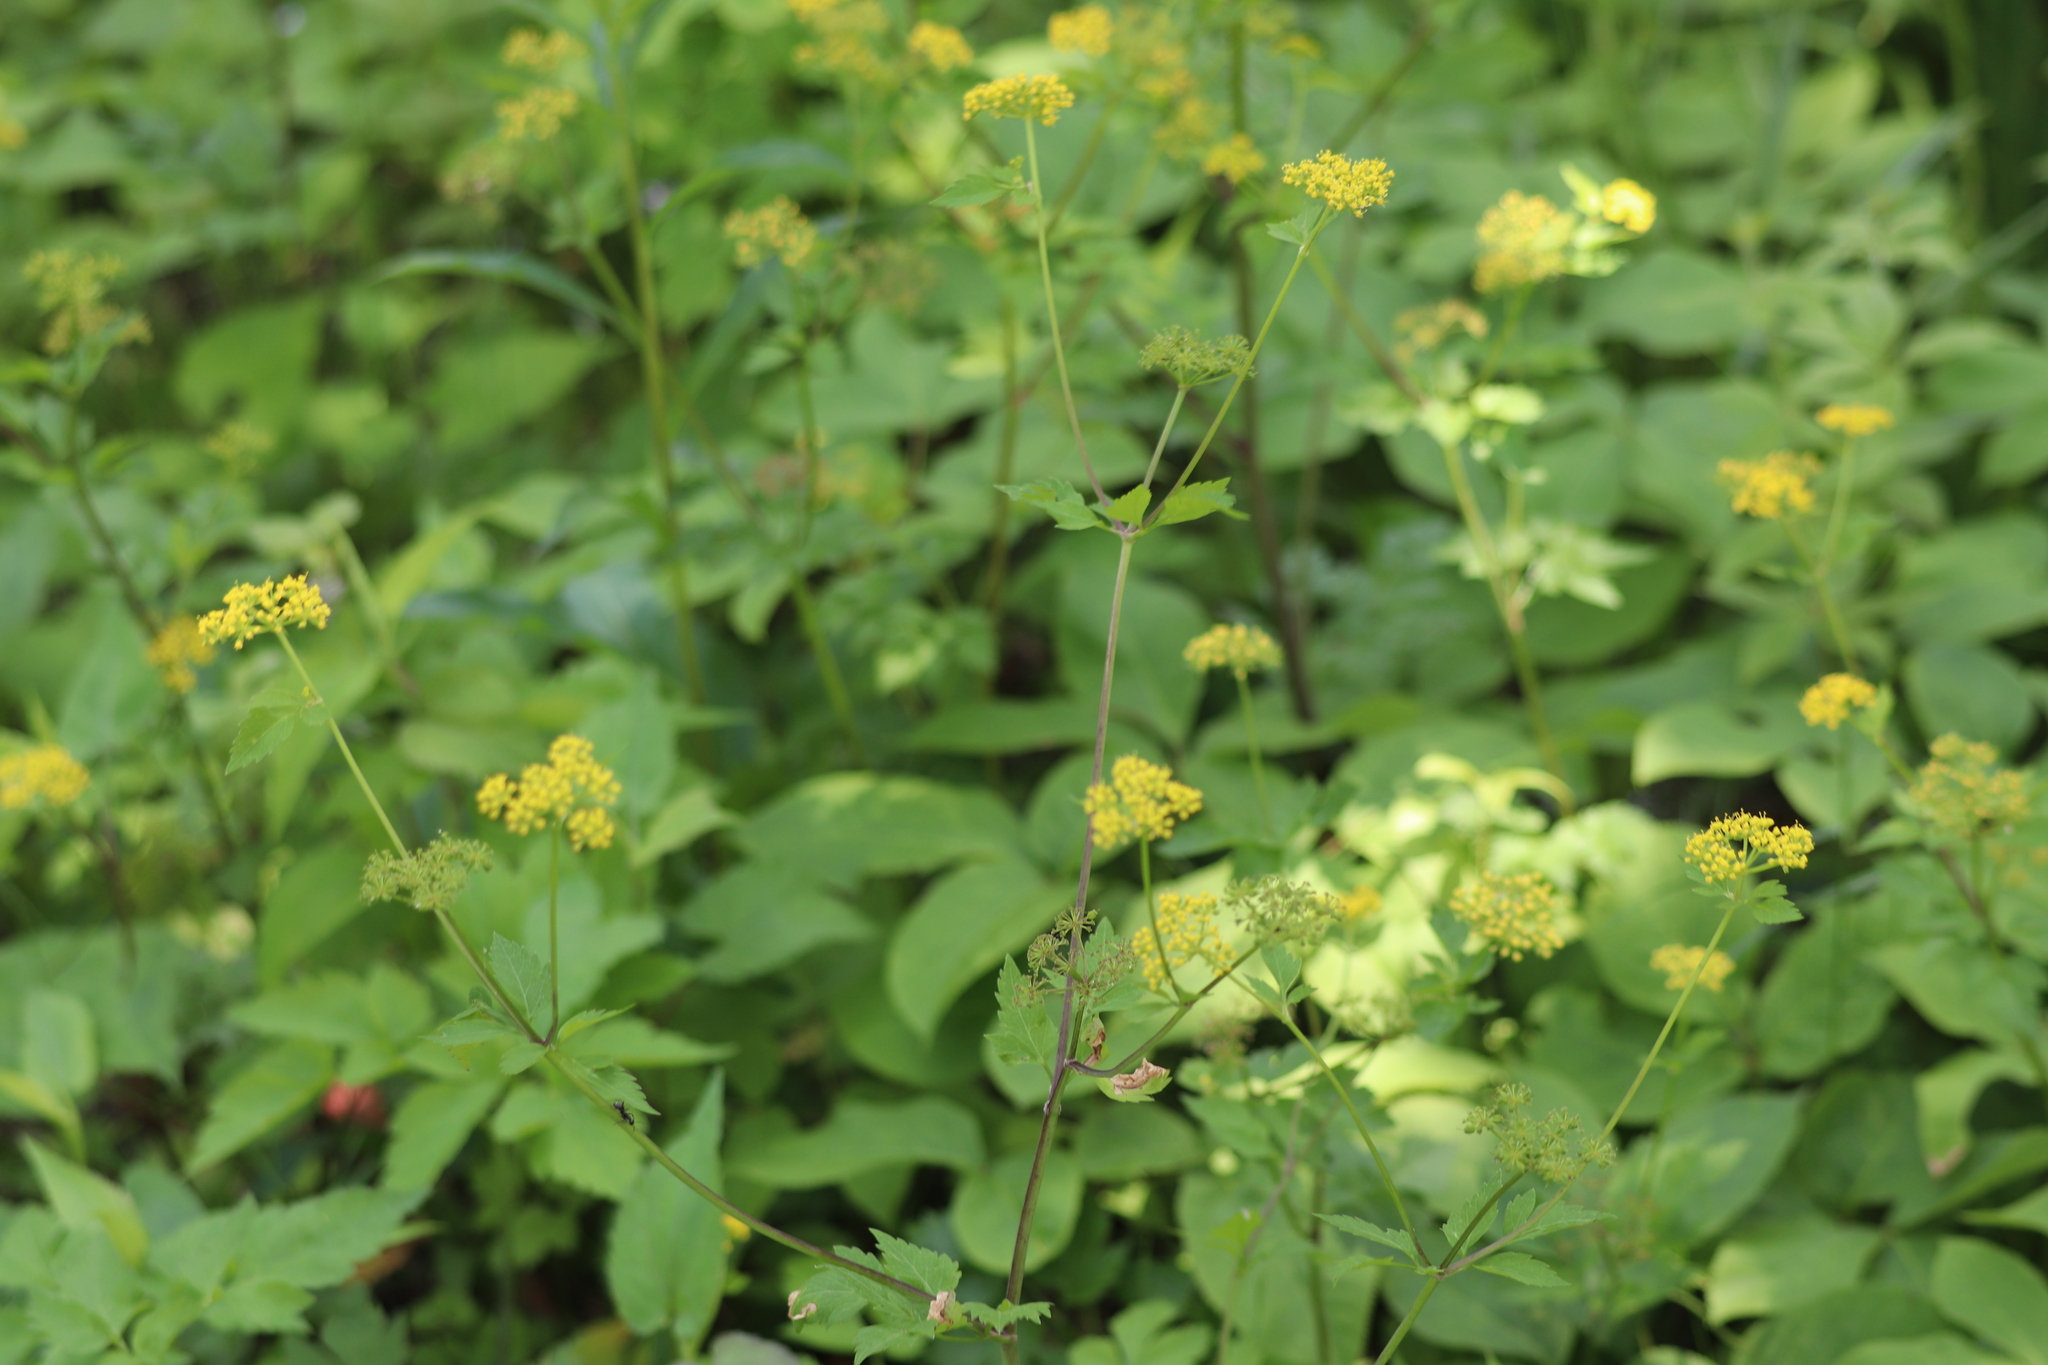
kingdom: Plantae
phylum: Tracheophyta
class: Magnoliopsida
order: Apiales
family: Apiaceae
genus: Zizia
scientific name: Zizia aurea
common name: Golden alexanders
